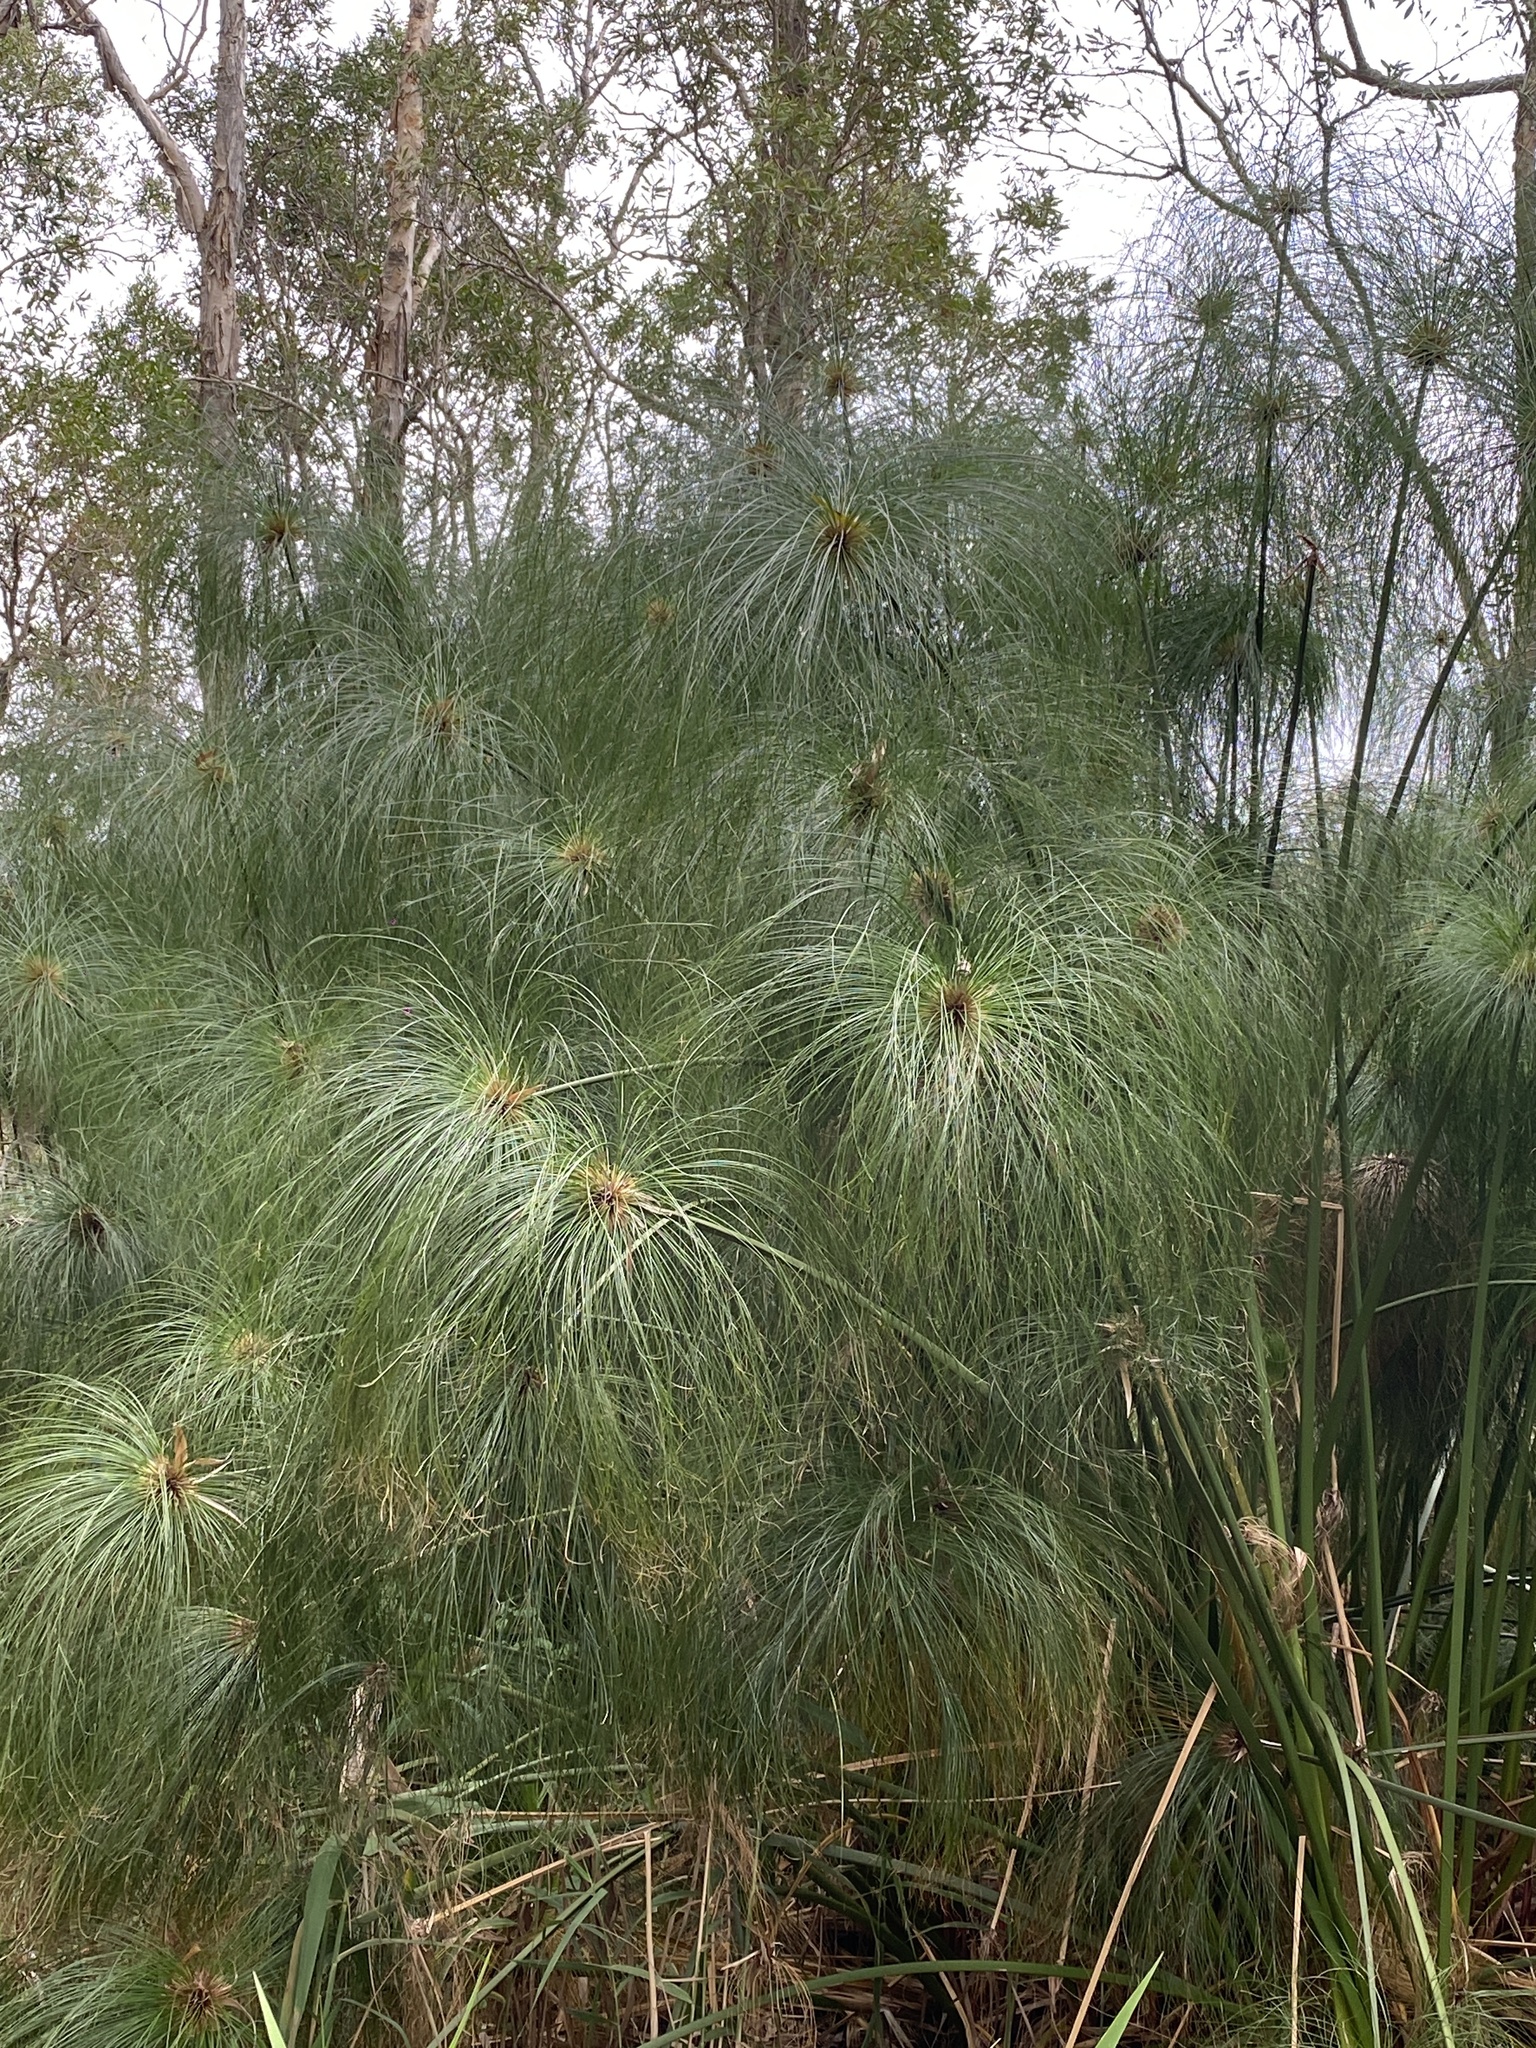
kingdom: Plantae
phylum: Tracheophyta
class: Liliopsida
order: Poales
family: Cyperaceae
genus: Cyperus
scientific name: Cyperus papyrus
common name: Papyrus
